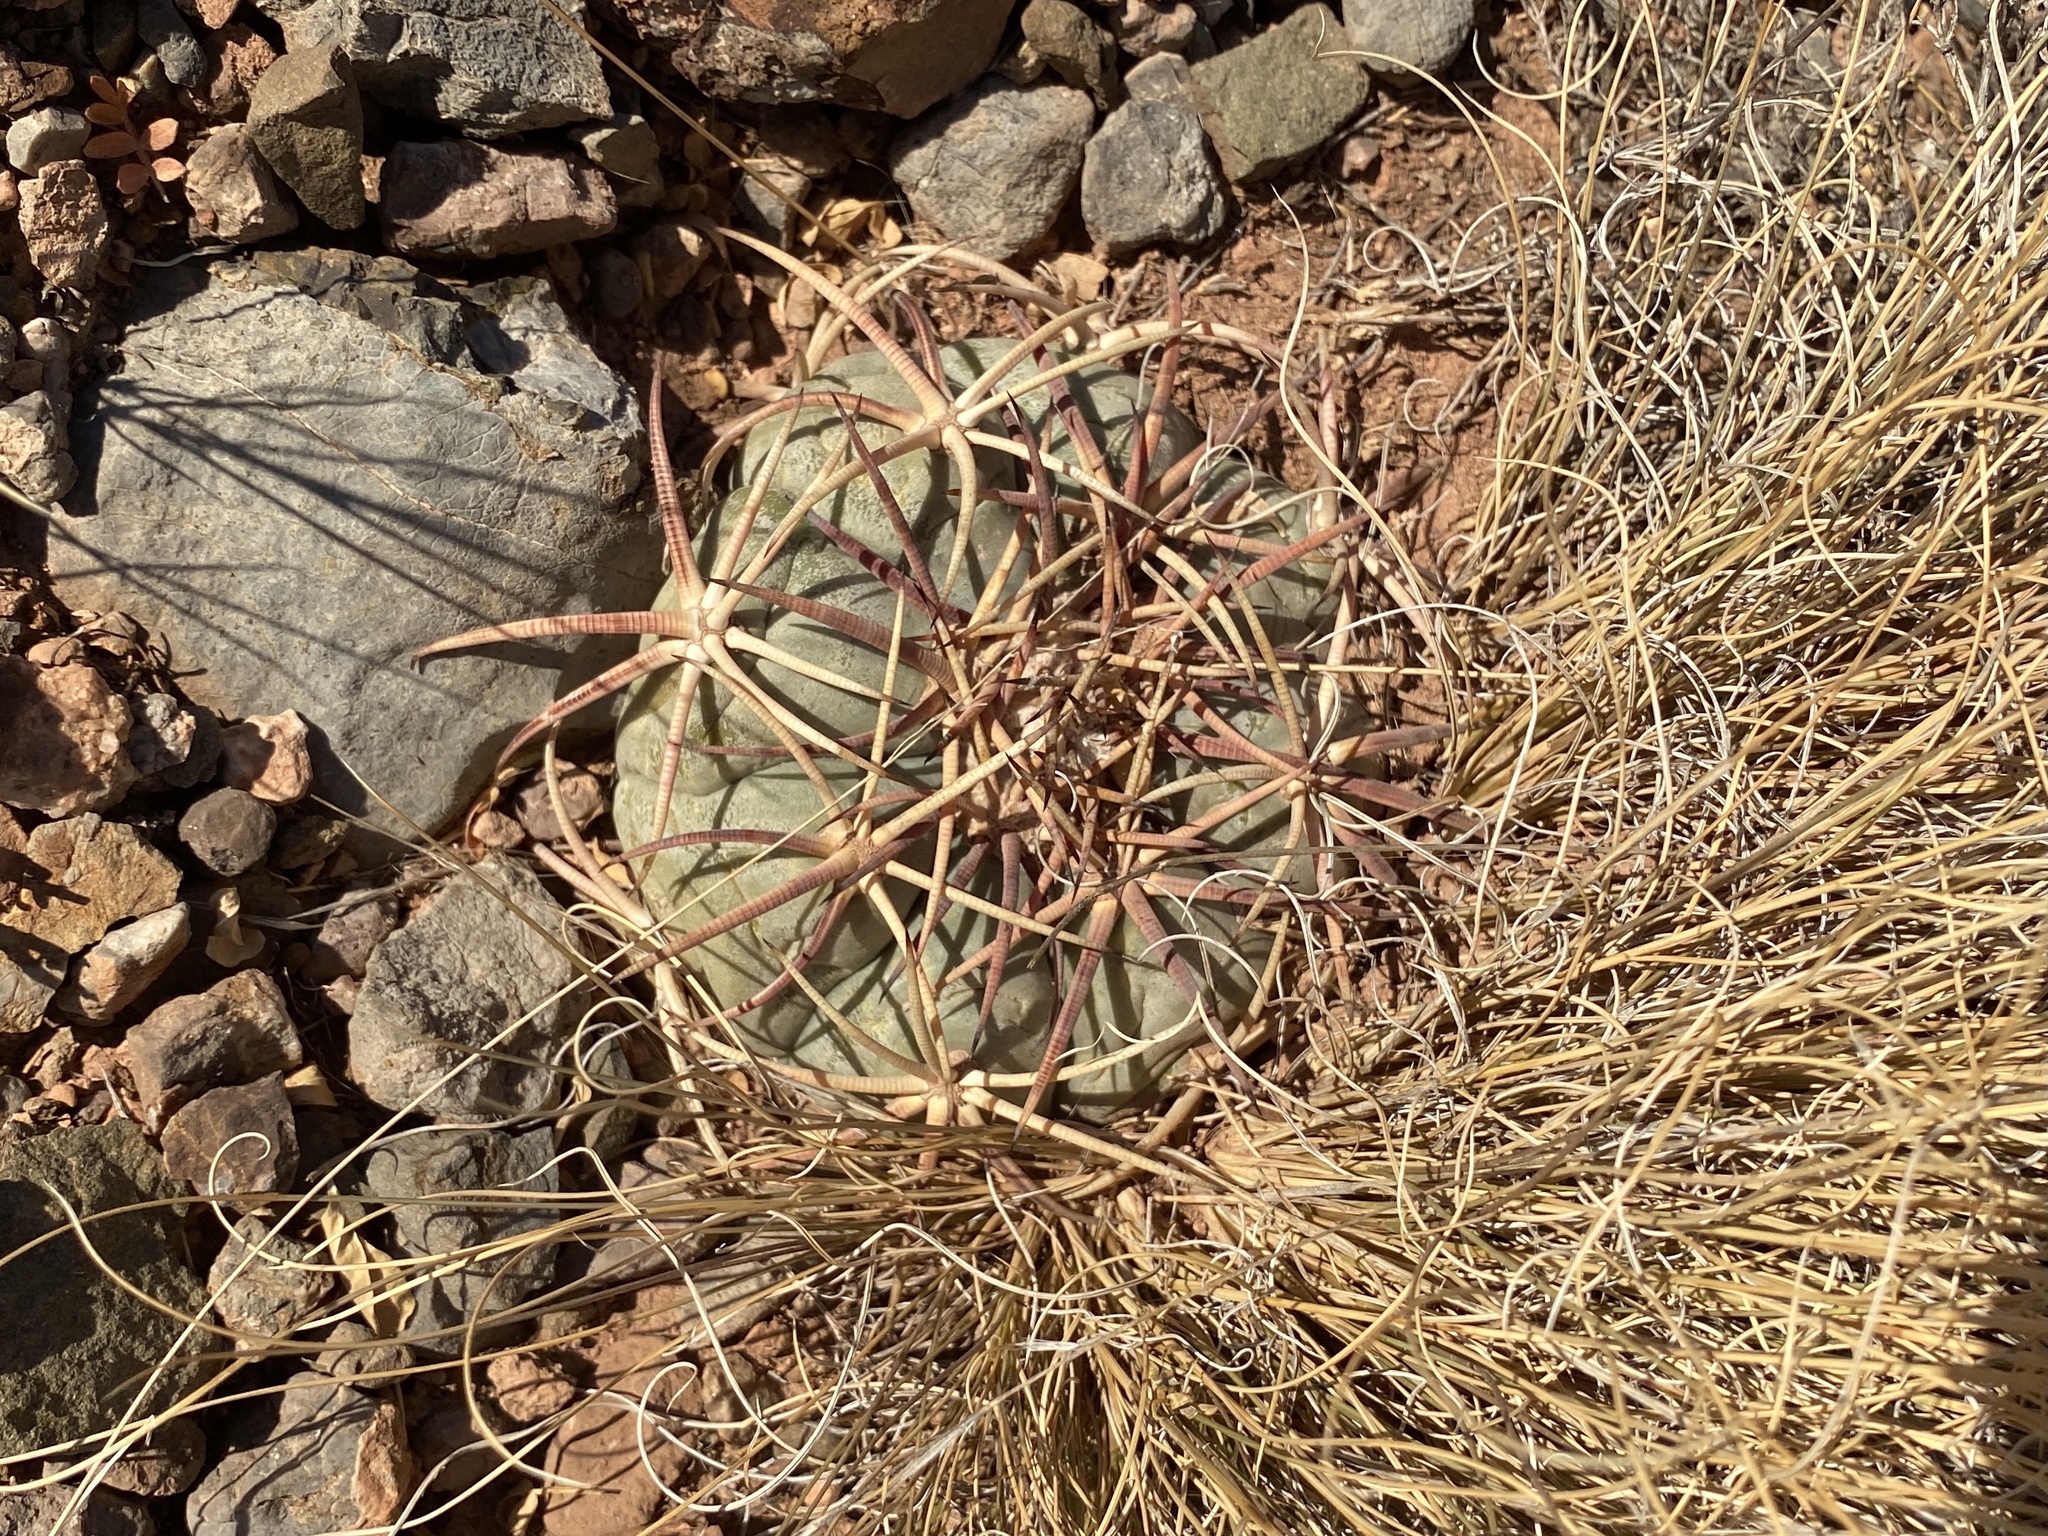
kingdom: Plantae
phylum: Tracheophyta
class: Magnoliopsida
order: Caryophyllales
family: Cactaceae
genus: Echinocactus
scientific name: Echinocactus horizonthalonius
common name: Devilshead
